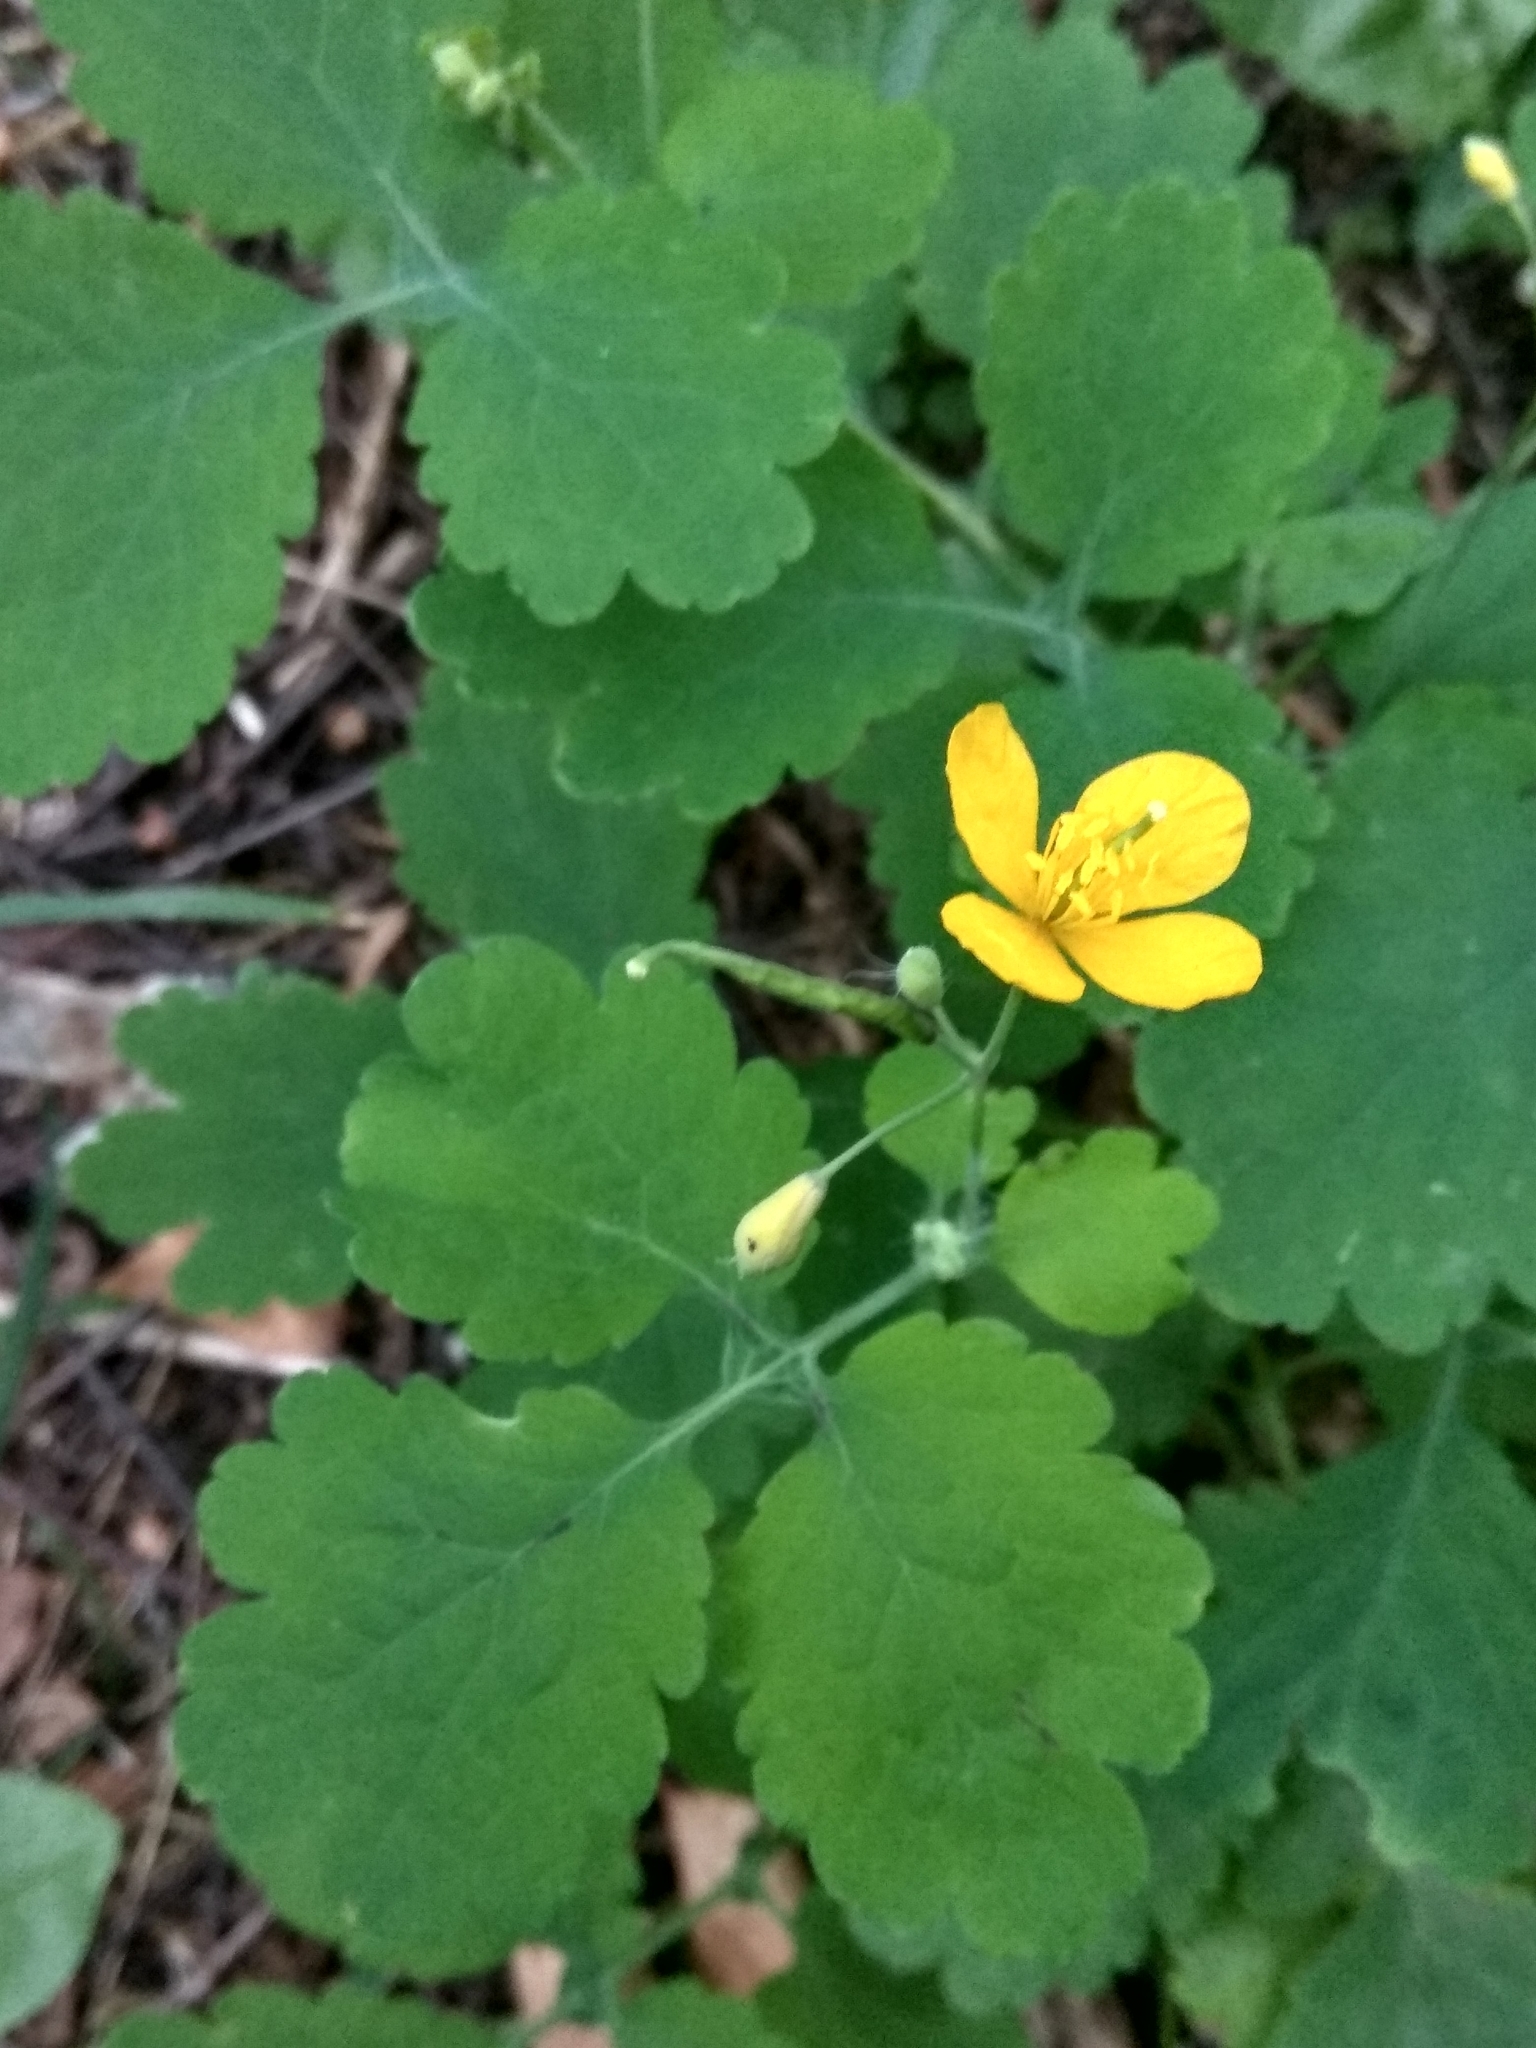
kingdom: Plantae
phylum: Tracheophyta
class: Magnoliopsida
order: Ranunculales
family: Papaveraceae
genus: Chelidonium
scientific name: Chelidonium majus
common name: Greater celandine
